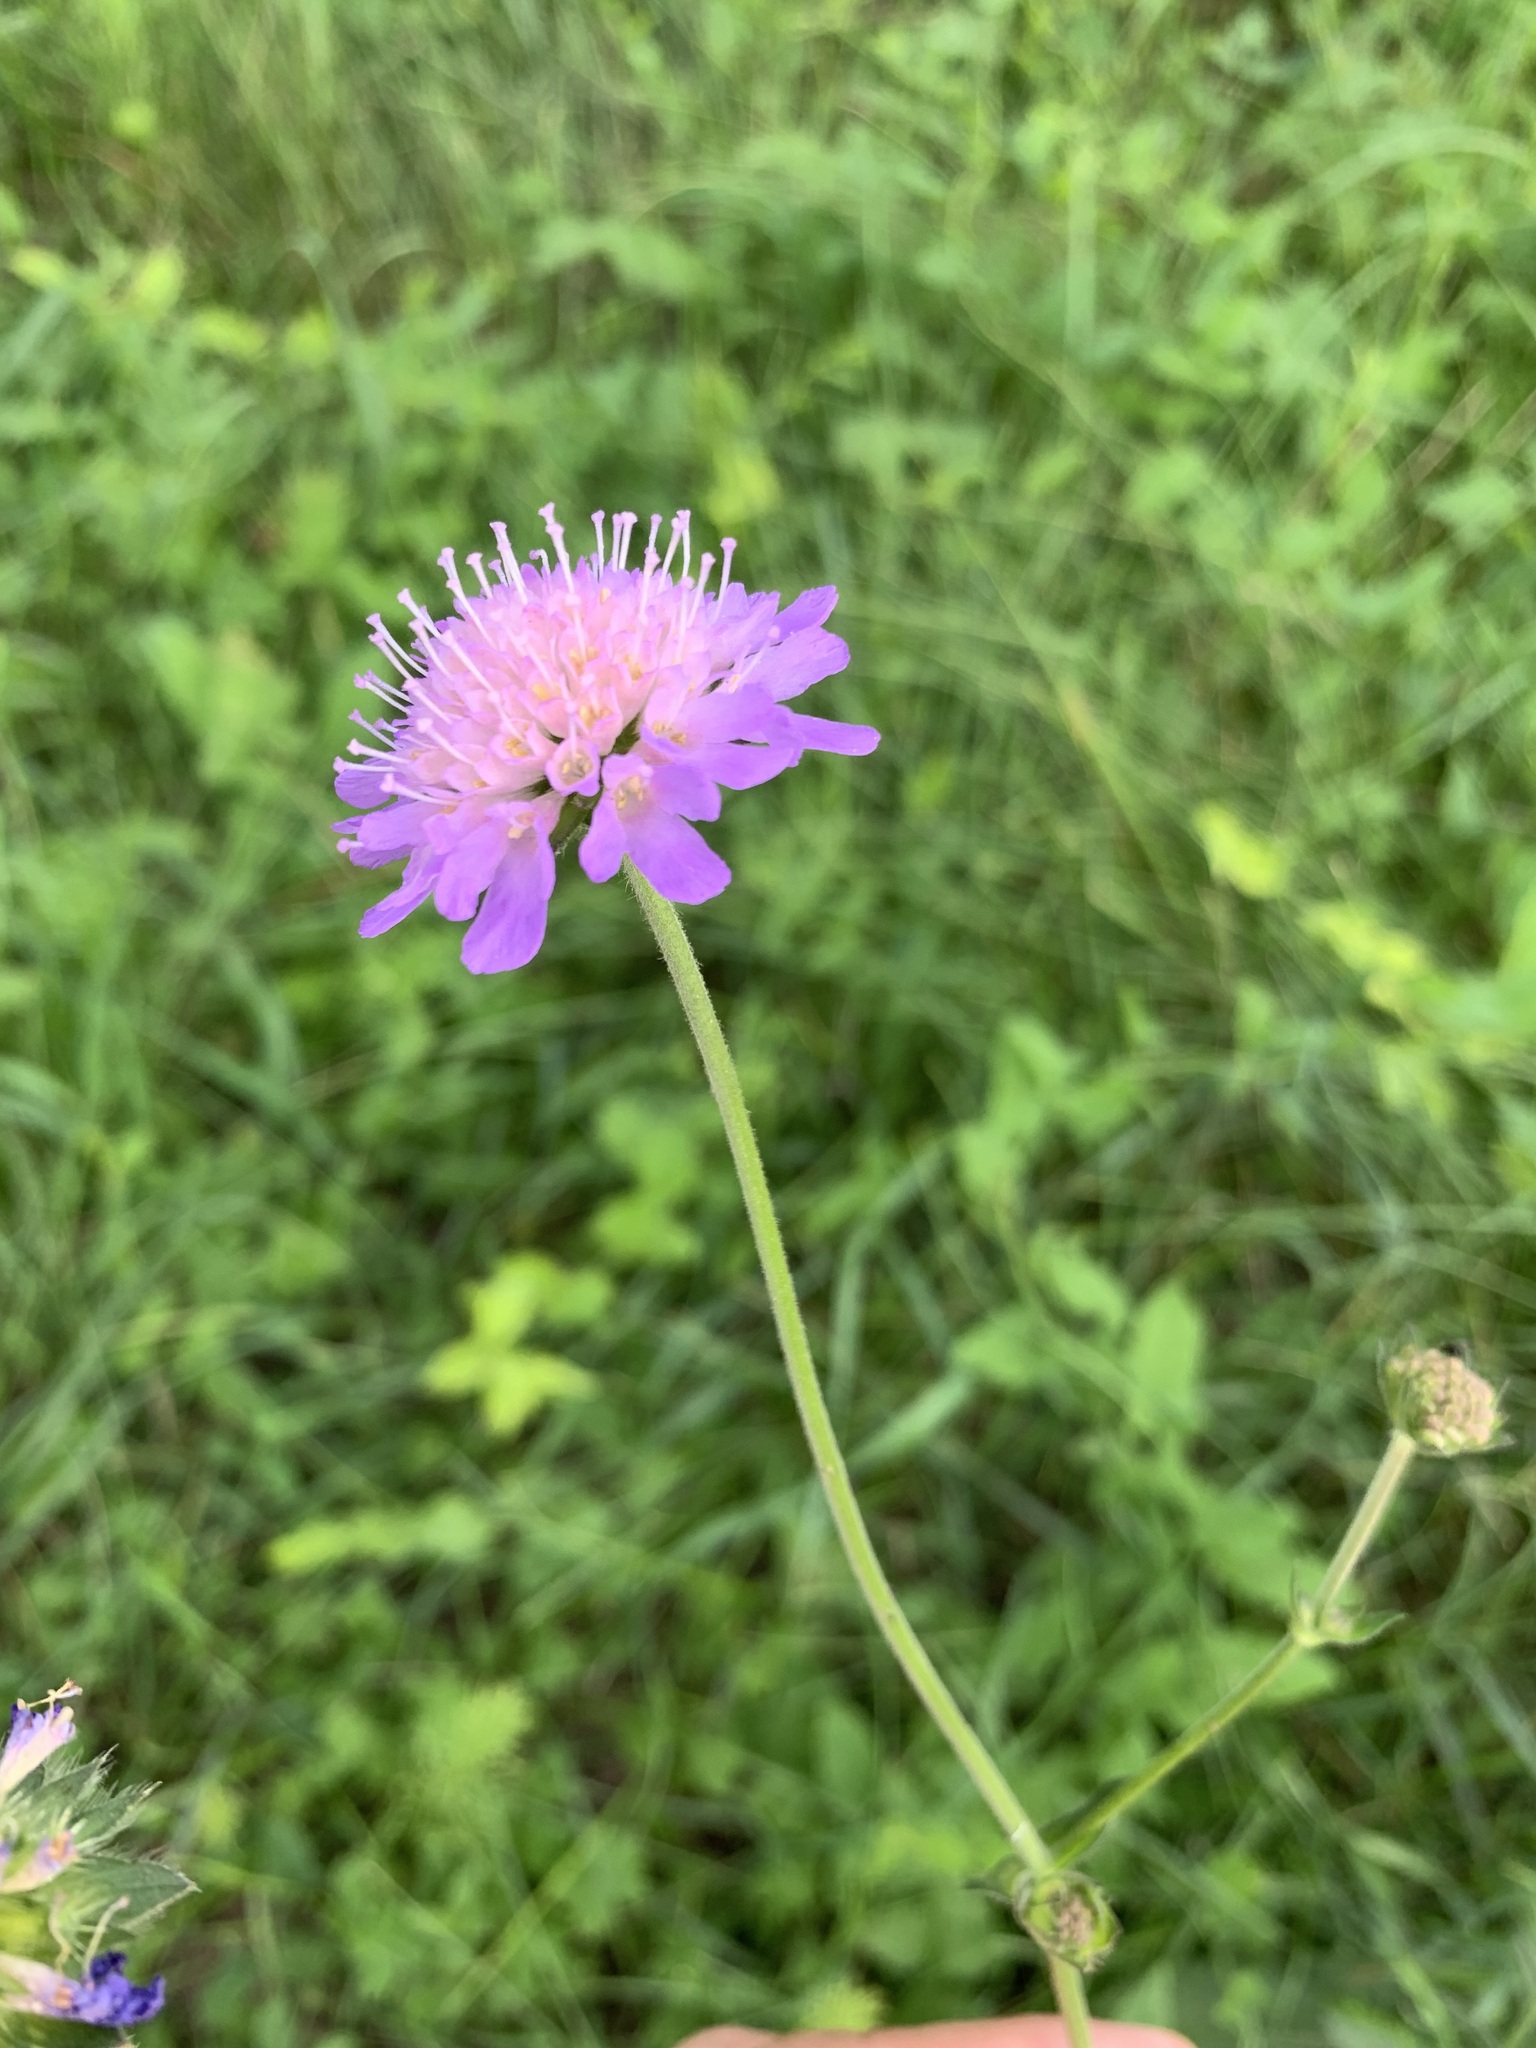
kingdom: Plantae
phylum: Tracheophyta
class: Magnoliopsida
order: Dipsacales
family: Caprifoliaceae
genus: Knautia
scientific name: Knautia arvensis
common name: Field scabiosa
